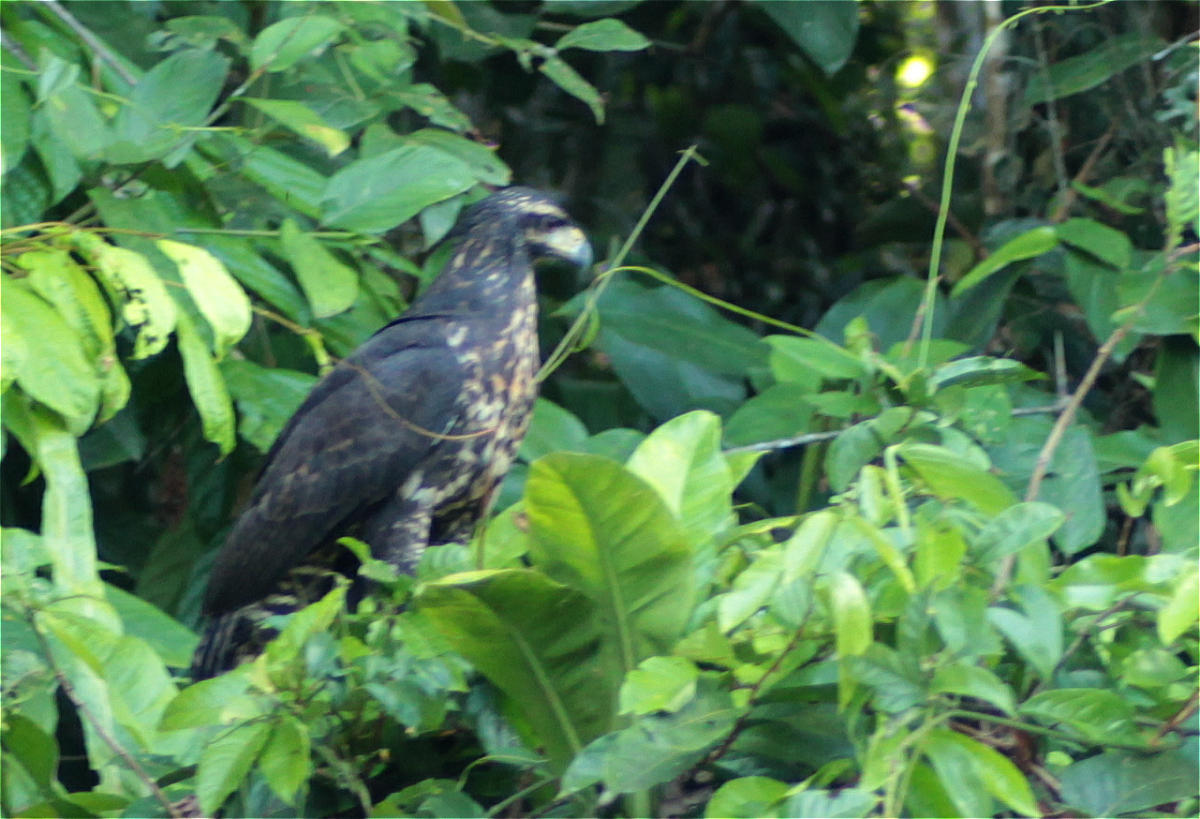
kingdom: Animalia
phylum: Chordata
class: Aves
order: Accipitriformes
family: Accipitridae
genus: Buteogallus
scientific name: Buteogallus urubitinga
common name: Great black hawk
